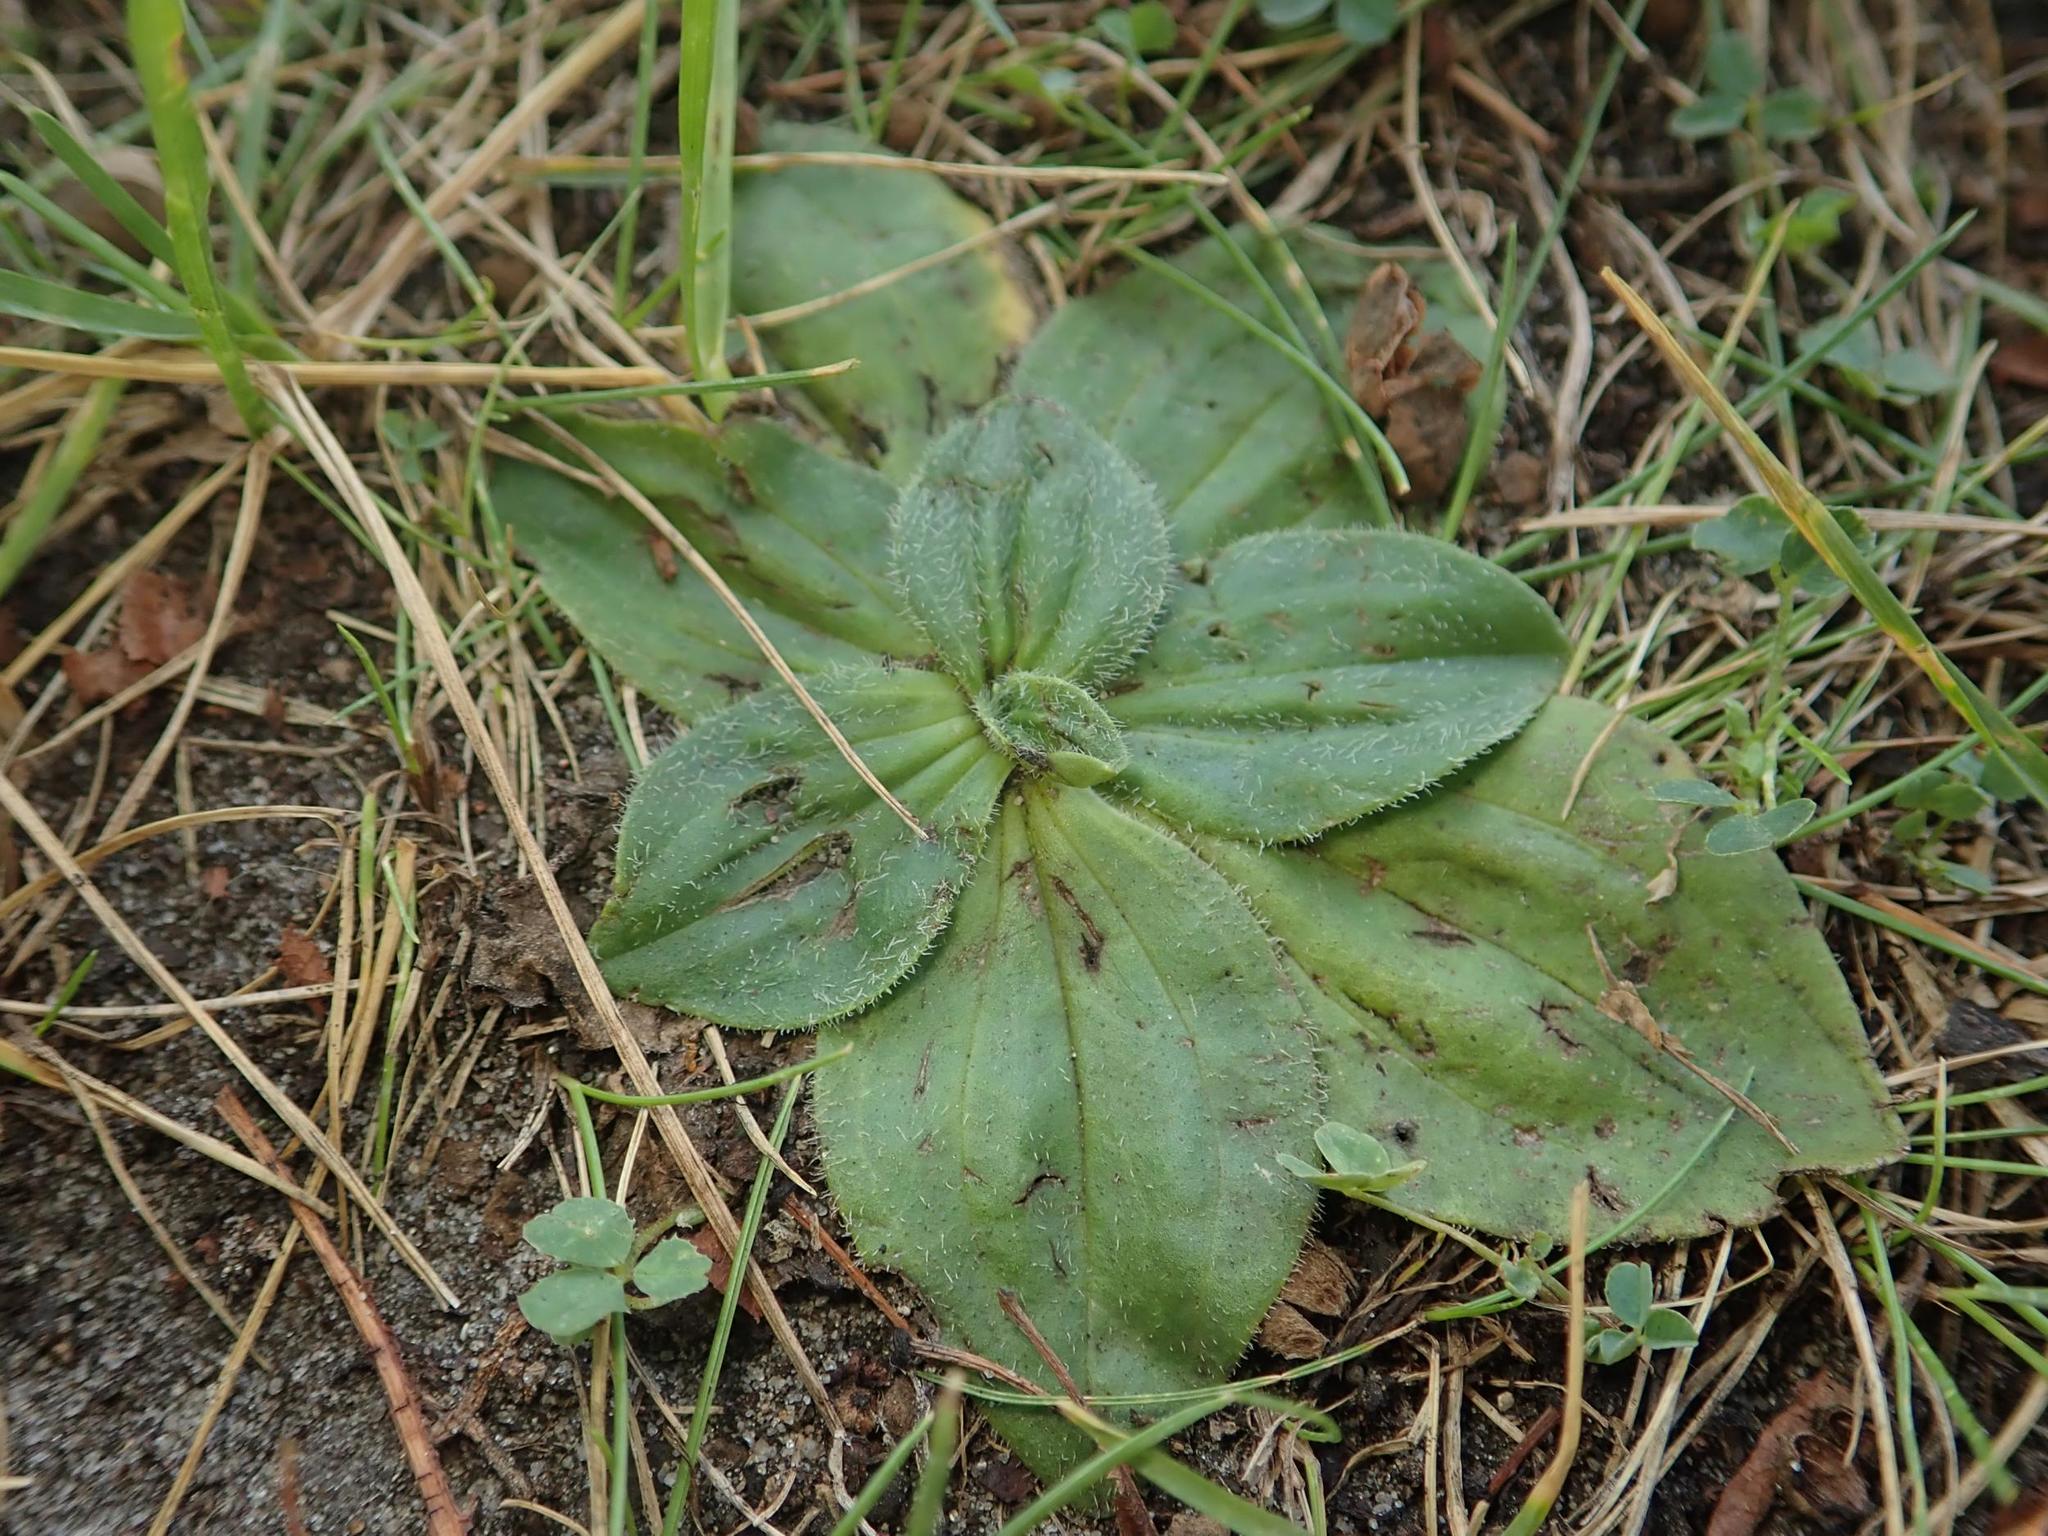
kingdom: Plantae
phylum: Tracheophyta
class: Magnoliopsida
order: Lamiales
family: Plantaginaceae
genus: Plantago
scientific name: Plantago media
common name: Hoary plantain
